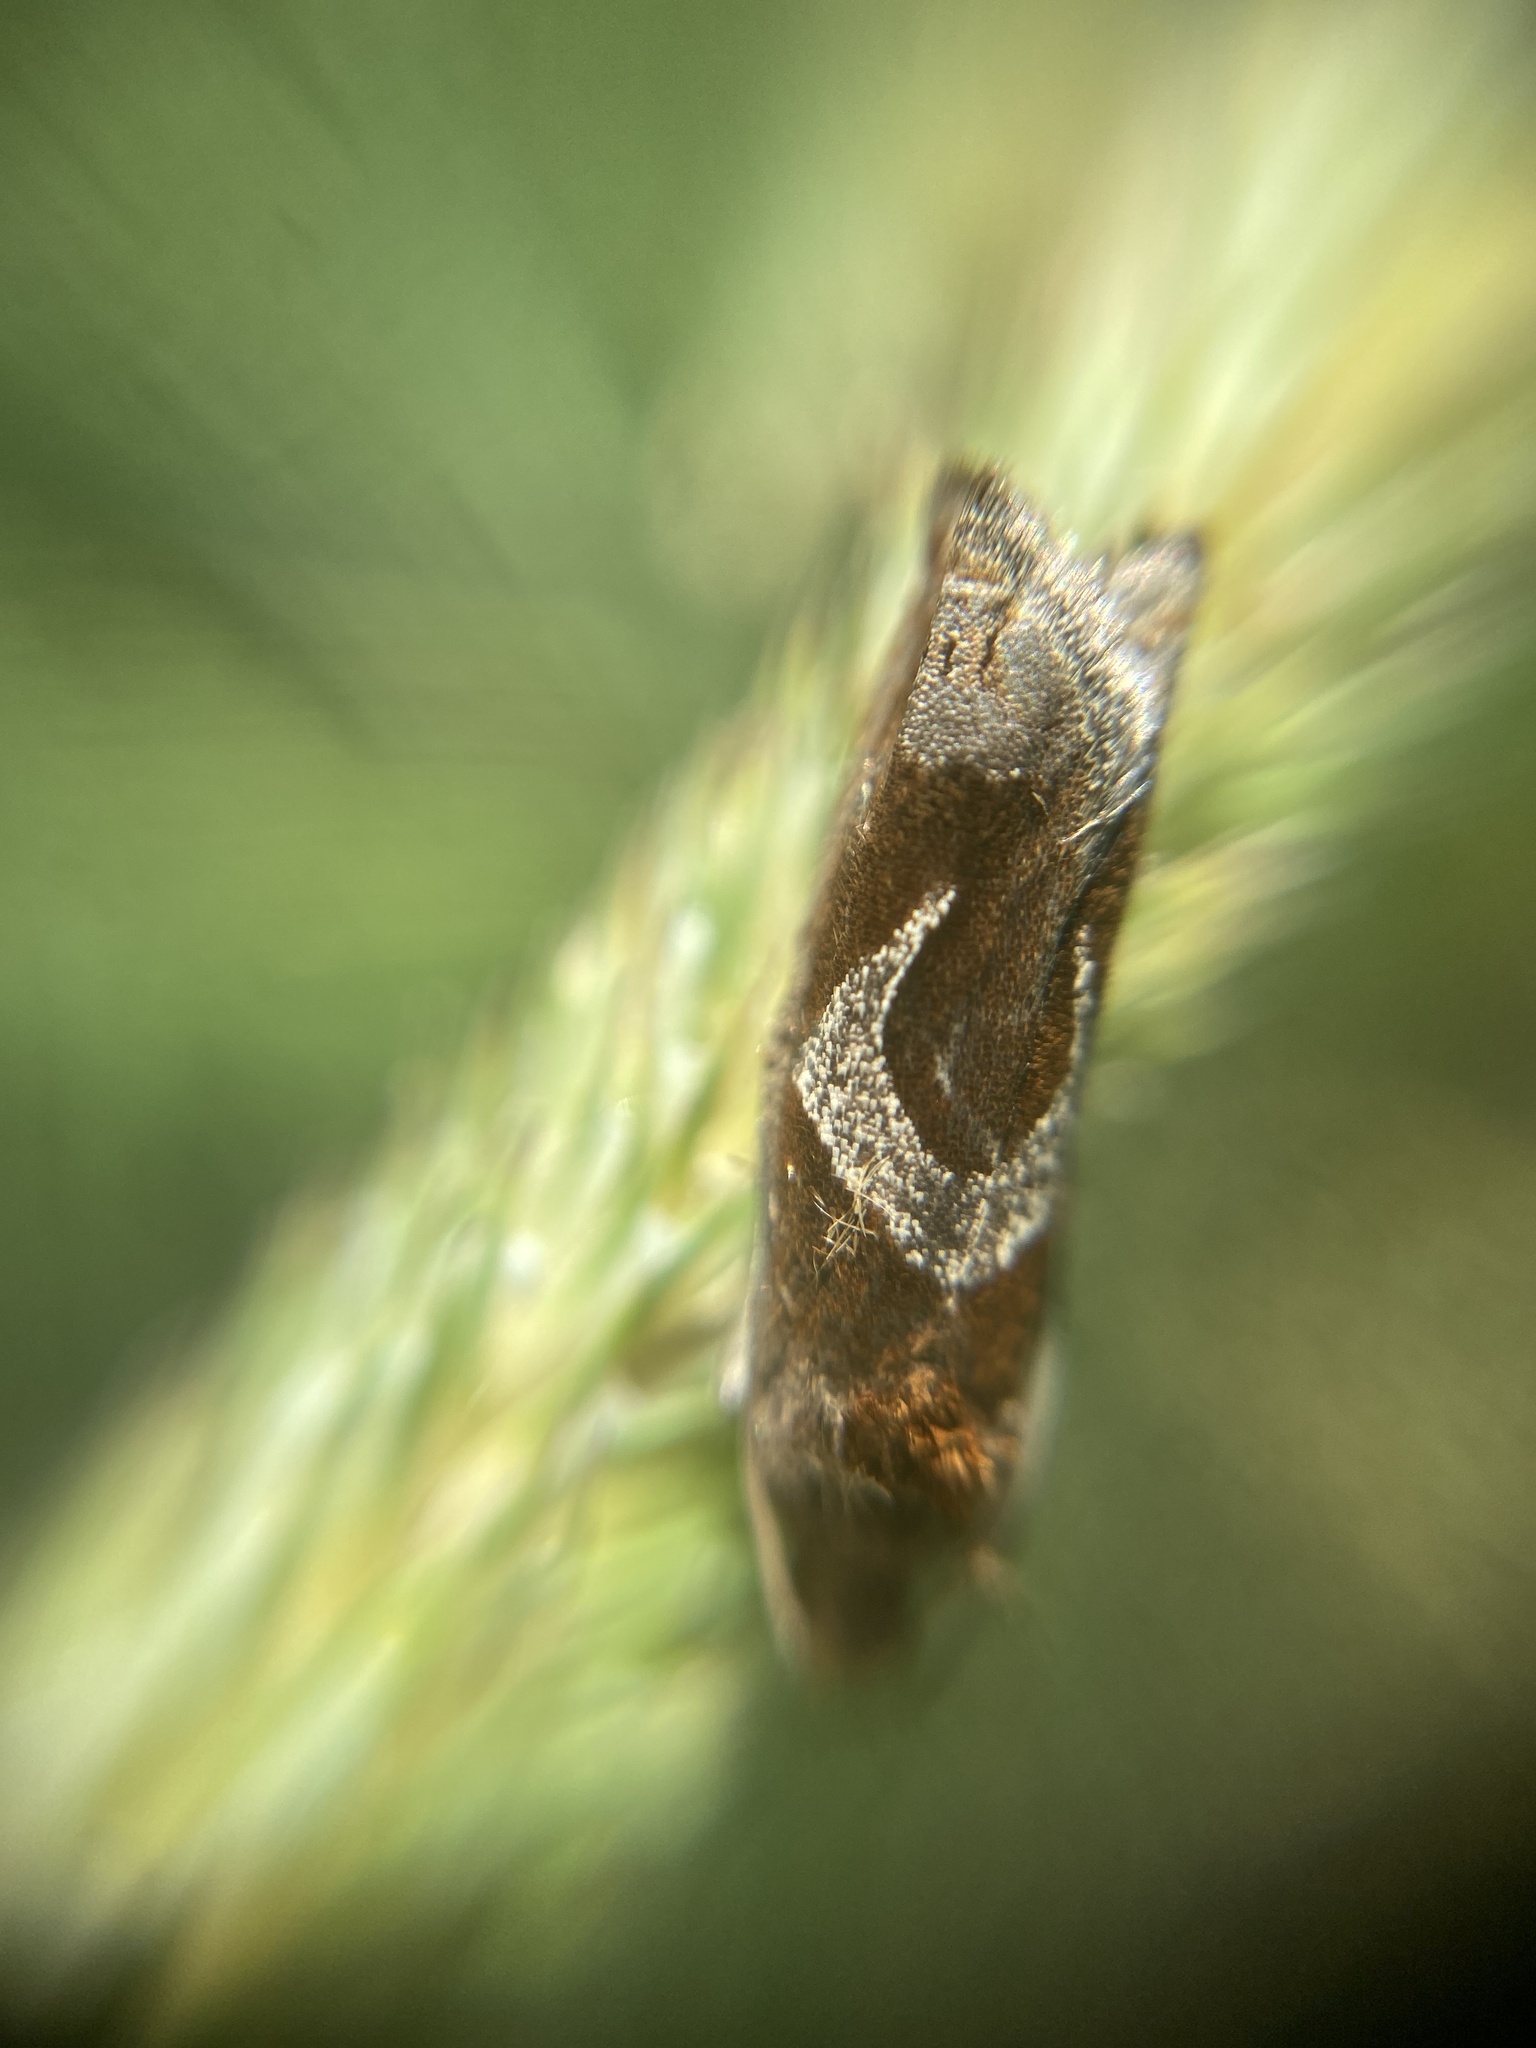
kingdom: Animalia
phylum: Arthropoda
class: Insecta
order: Lepidoptera
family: Tortricidae
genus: Epiblema
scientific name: Epiblema foenella
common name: White-foot bell
